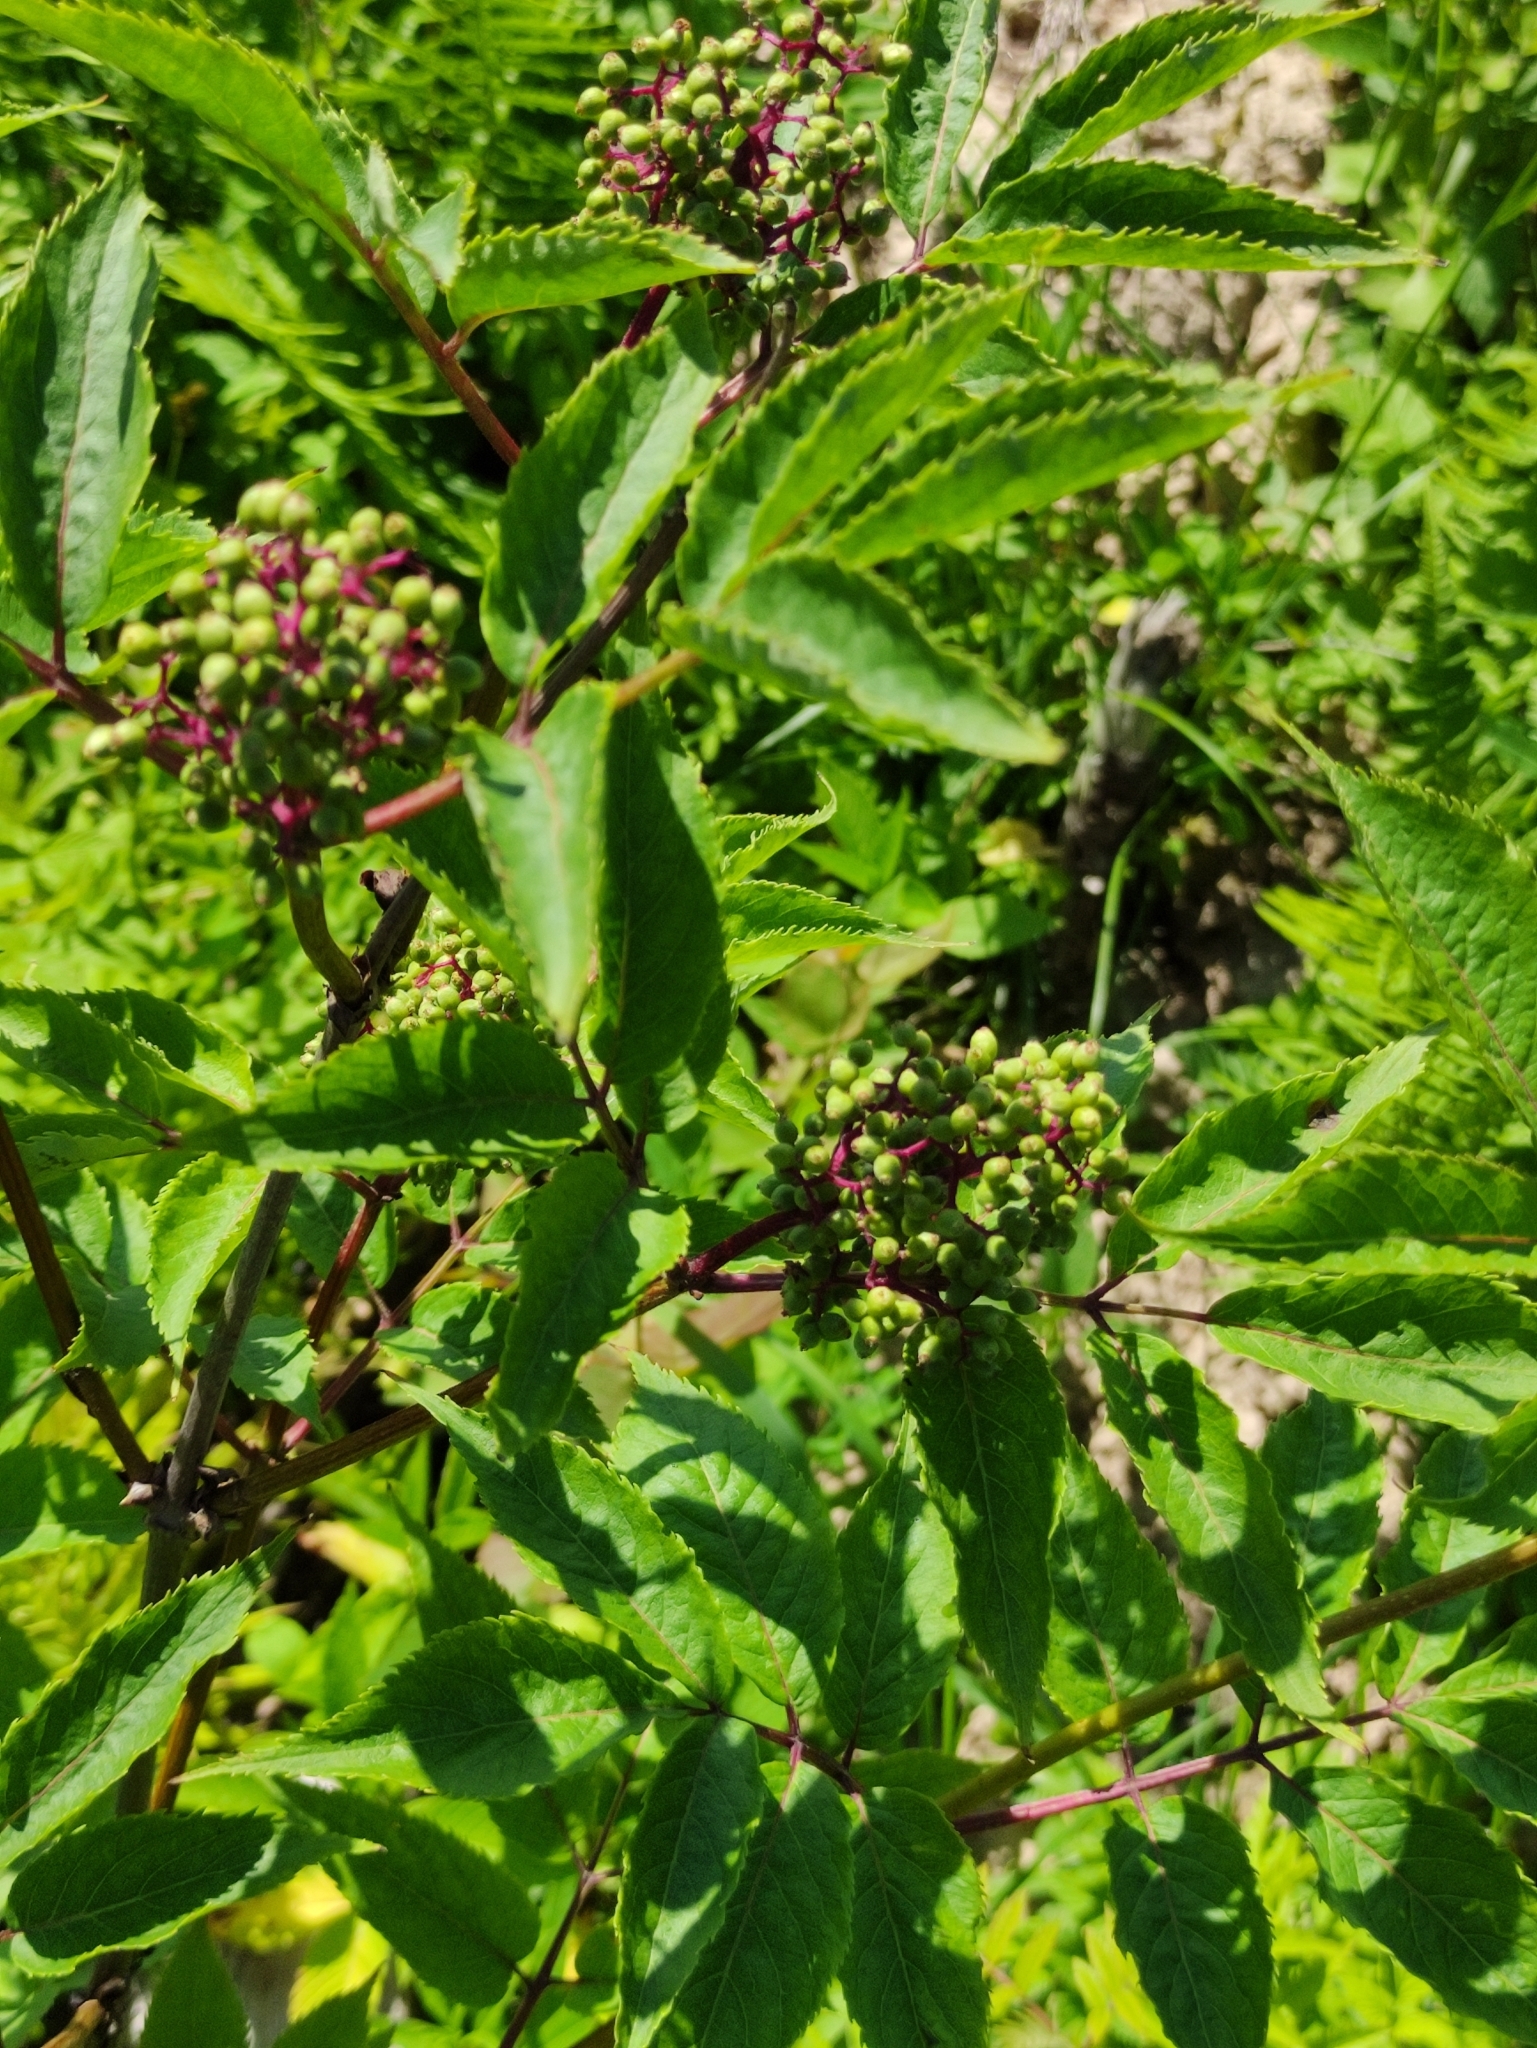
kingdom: Plantae
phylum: Tracheophyta
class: Magnoliopsida
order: Dipsacales
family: Viburnaceae
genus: Sambucus
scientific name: Sambucus racemosa
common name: Red-berried elder
